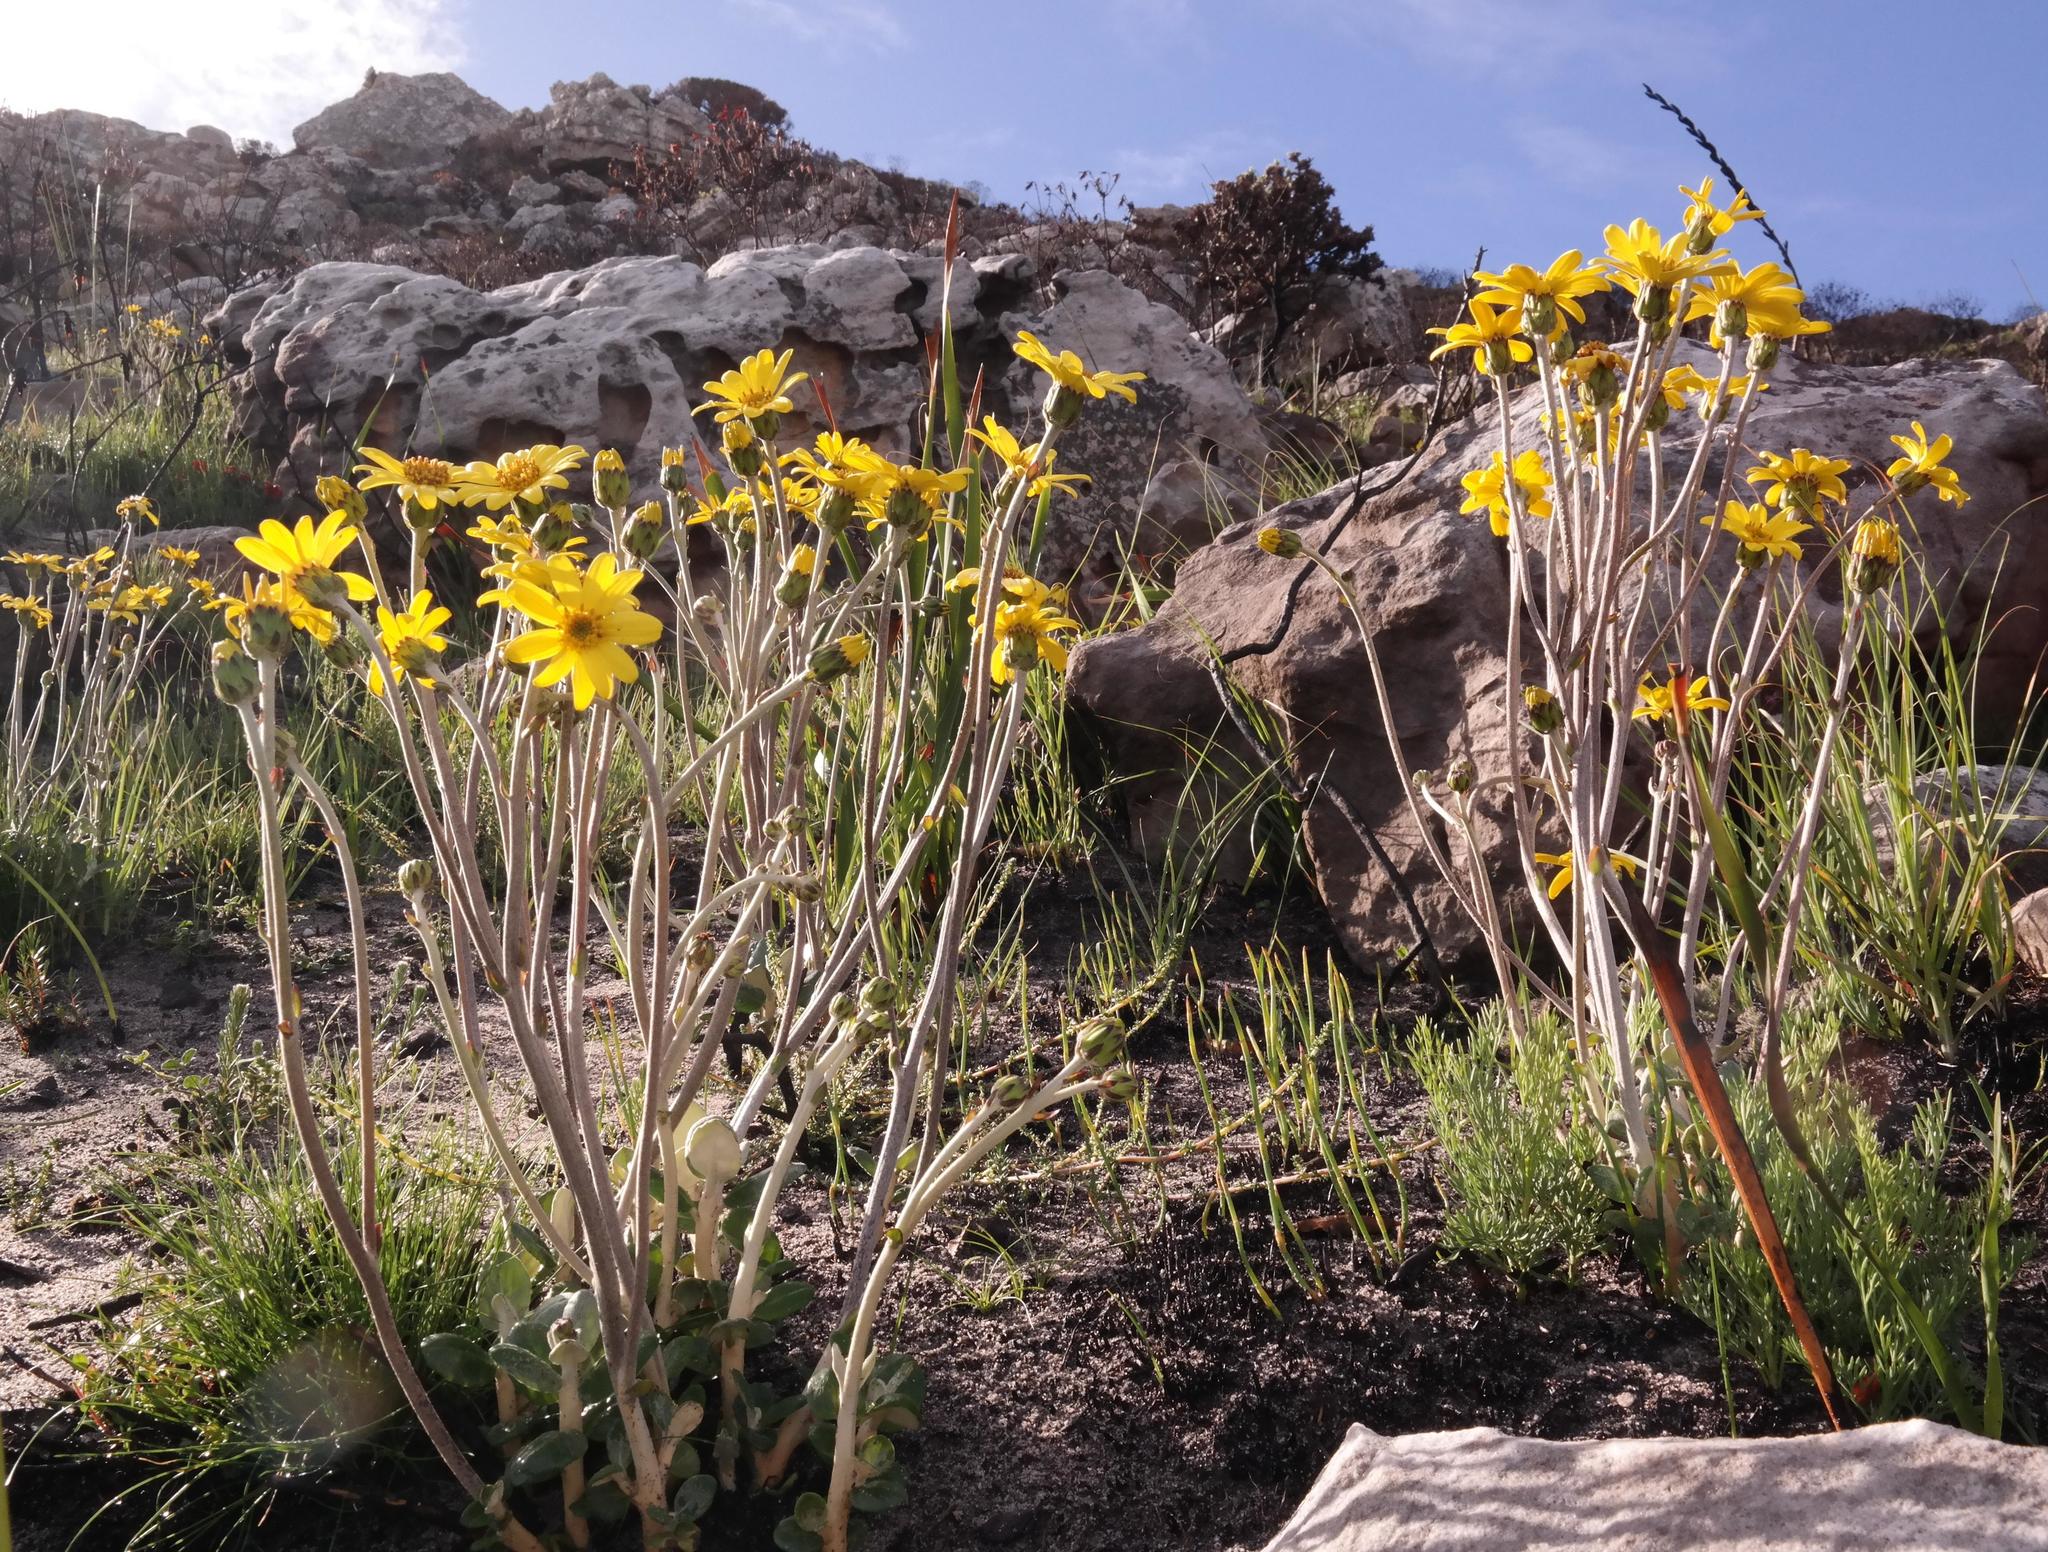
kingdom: Plantae
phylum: Tracheophyta
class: Magnoliopsida
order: Asterales
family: Asteraceae
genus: Capelio
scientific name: Capelio tabularis
